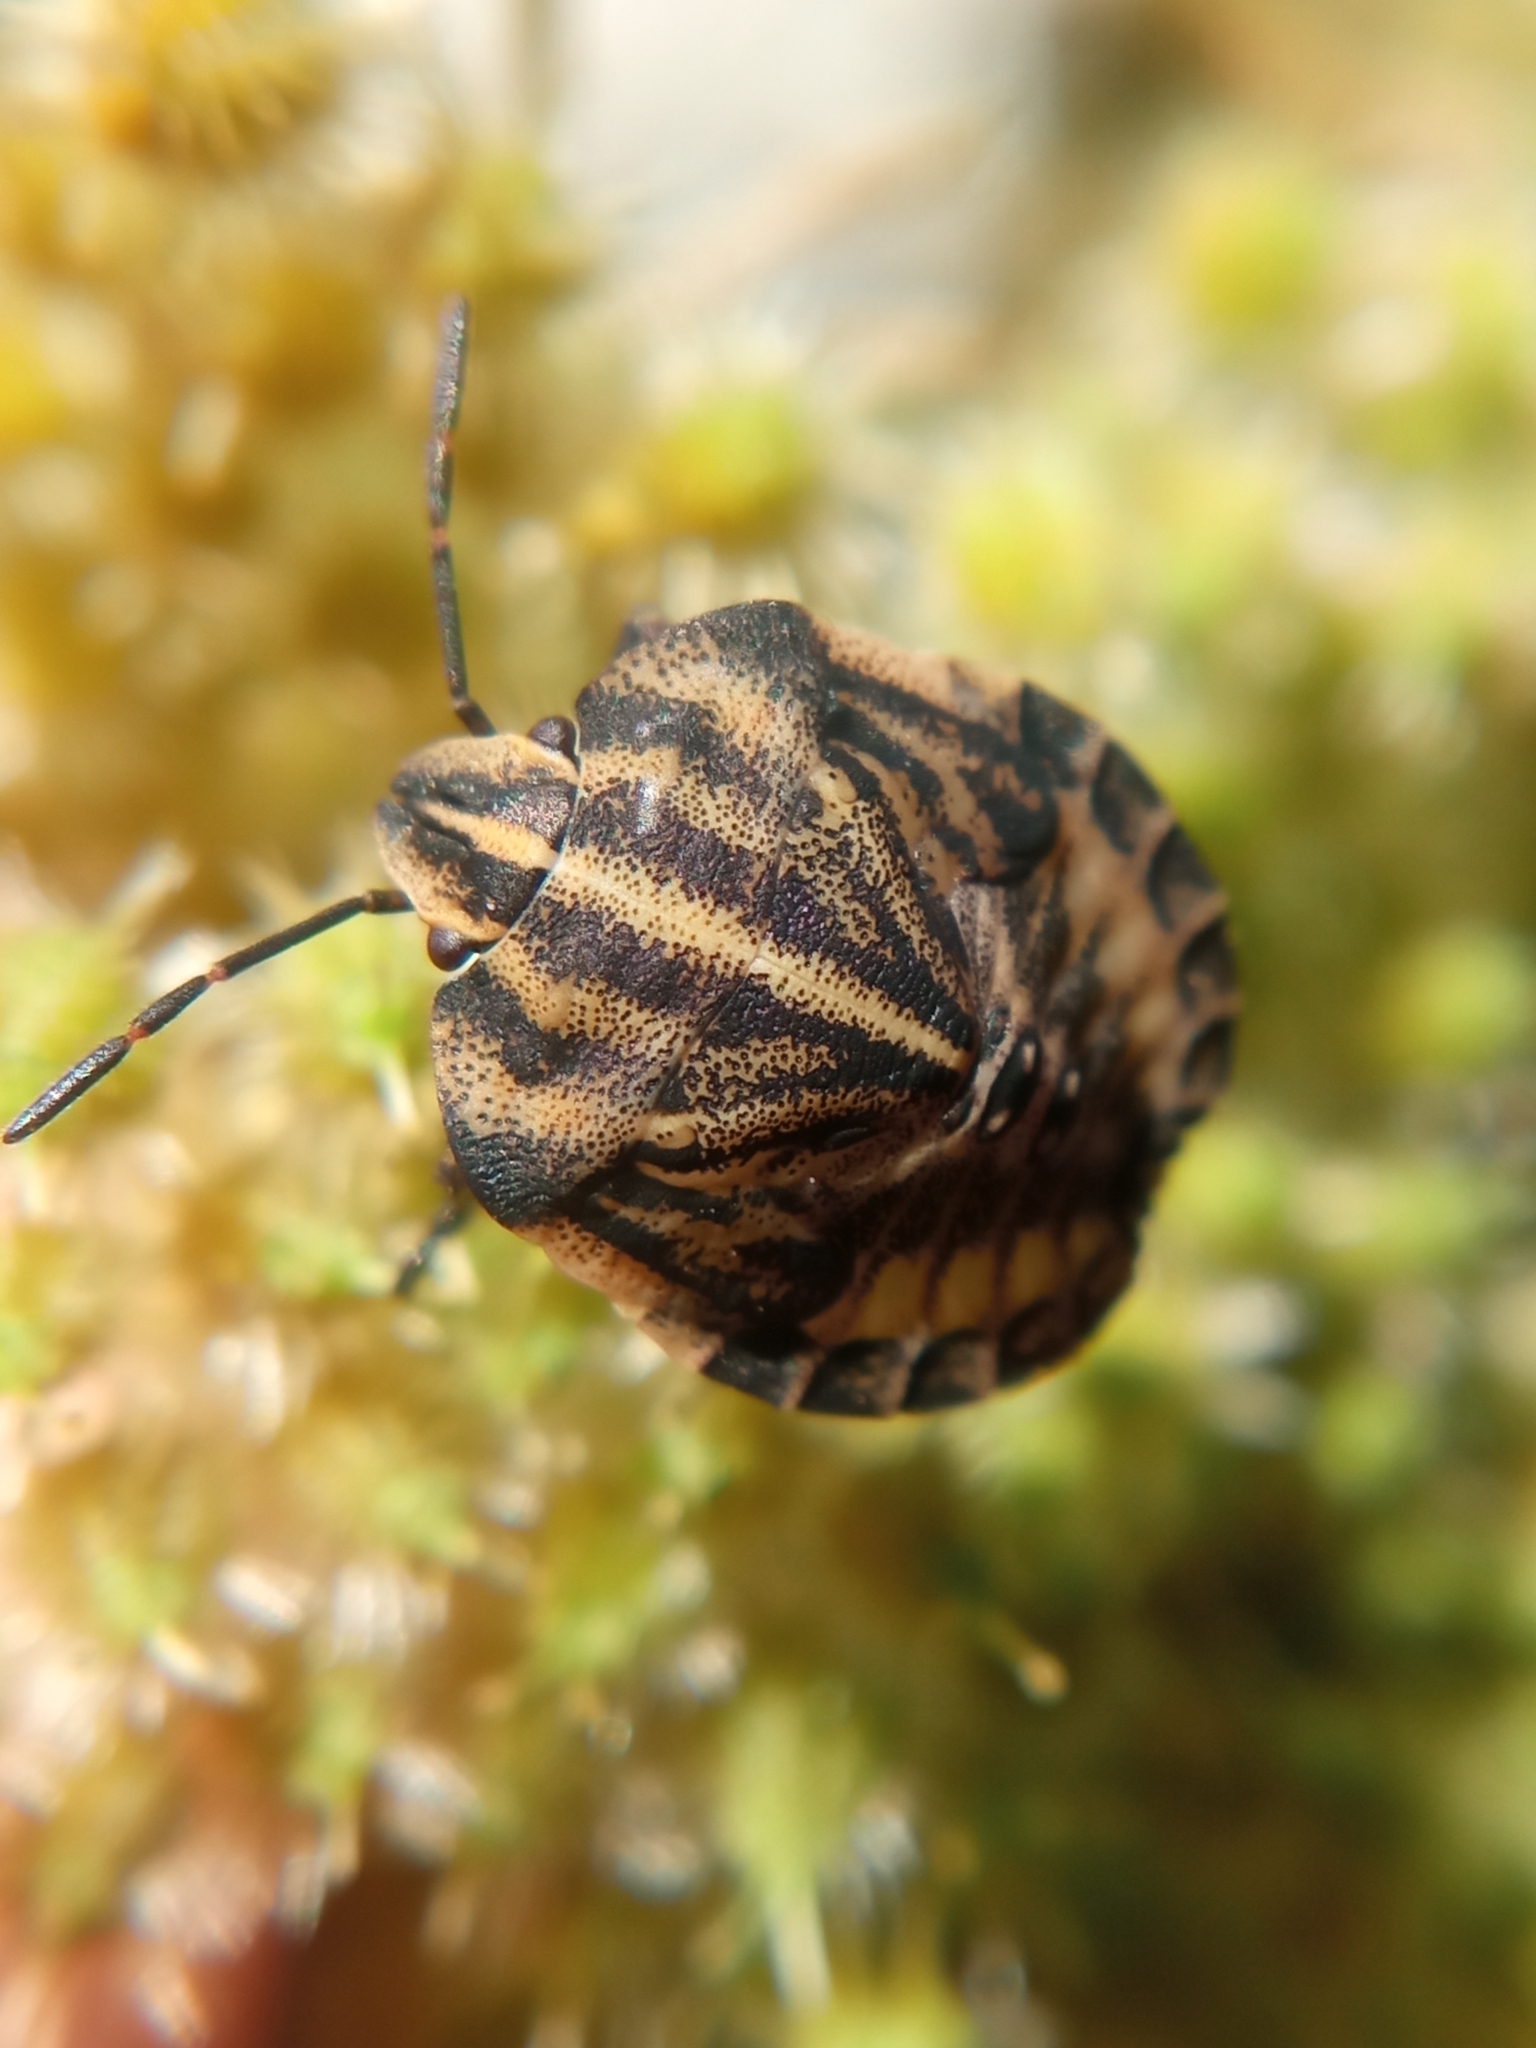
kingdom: Animalia
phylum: Arthropoda
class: Insecta
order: Hemiptera
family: Pentatomidae
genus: Graphosoma
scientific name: Graphosoma italicum
